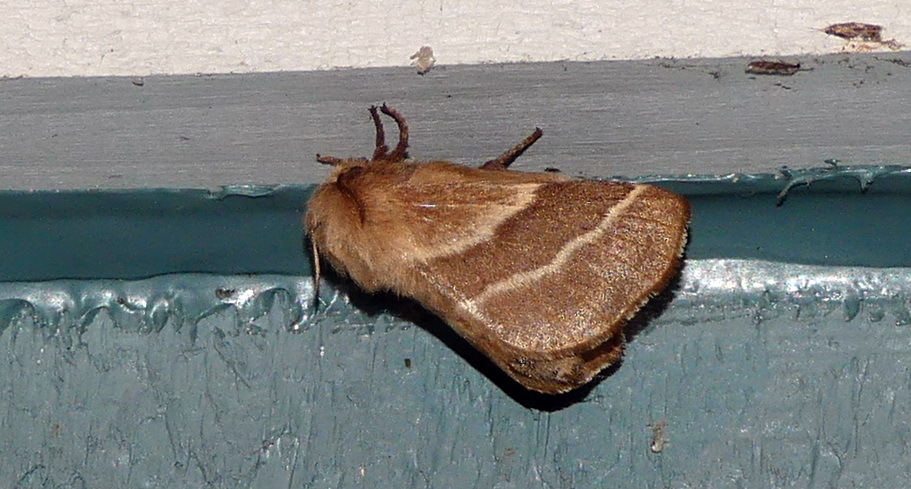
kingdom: Animalia
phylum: Arthropoda
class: Insecta
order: Lepidoptera
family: Lasiocampidae
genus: Malacosoma
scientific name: Malacosoma americana
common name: Eastern tent caterpillar moth
